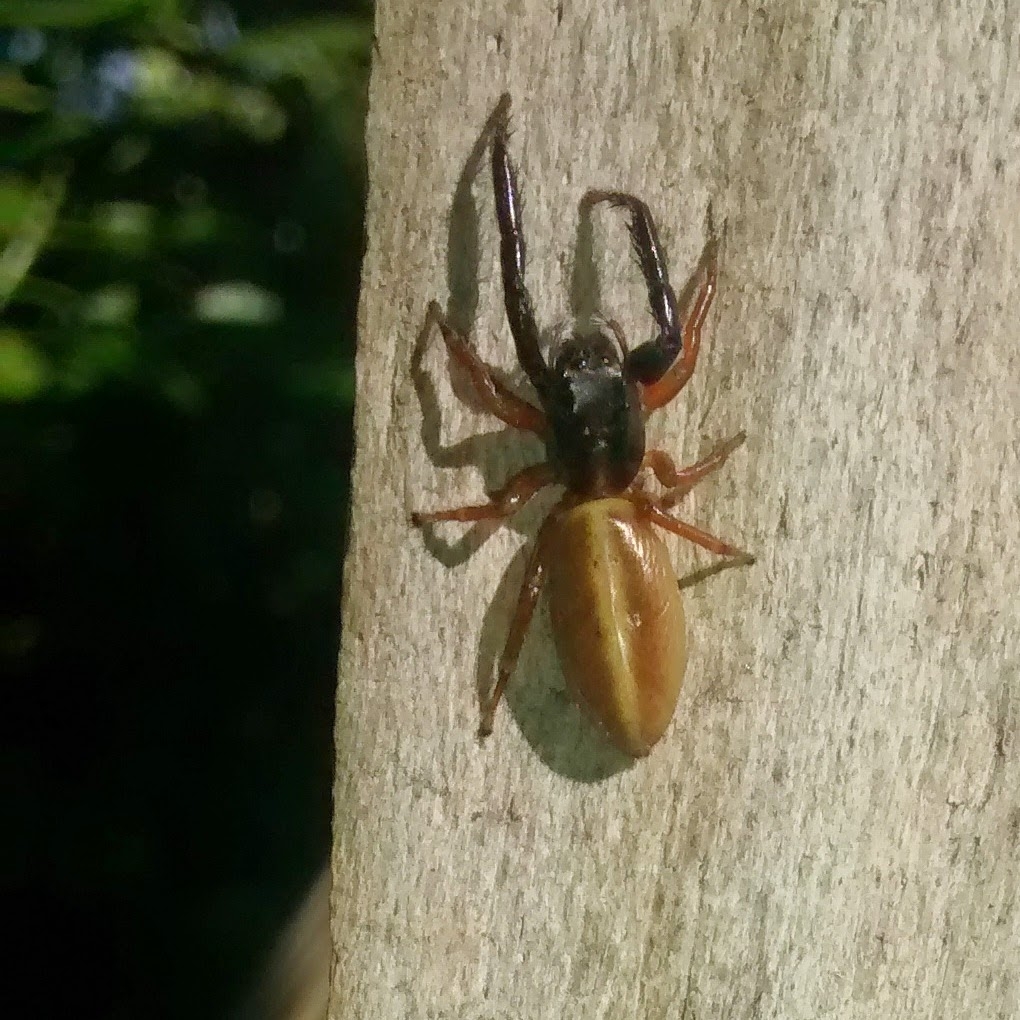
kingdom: Animalia
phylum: Arthropoda
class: Arachnida
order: Araneae
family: Salticidae
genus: Trite
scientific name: Trite planiceps
